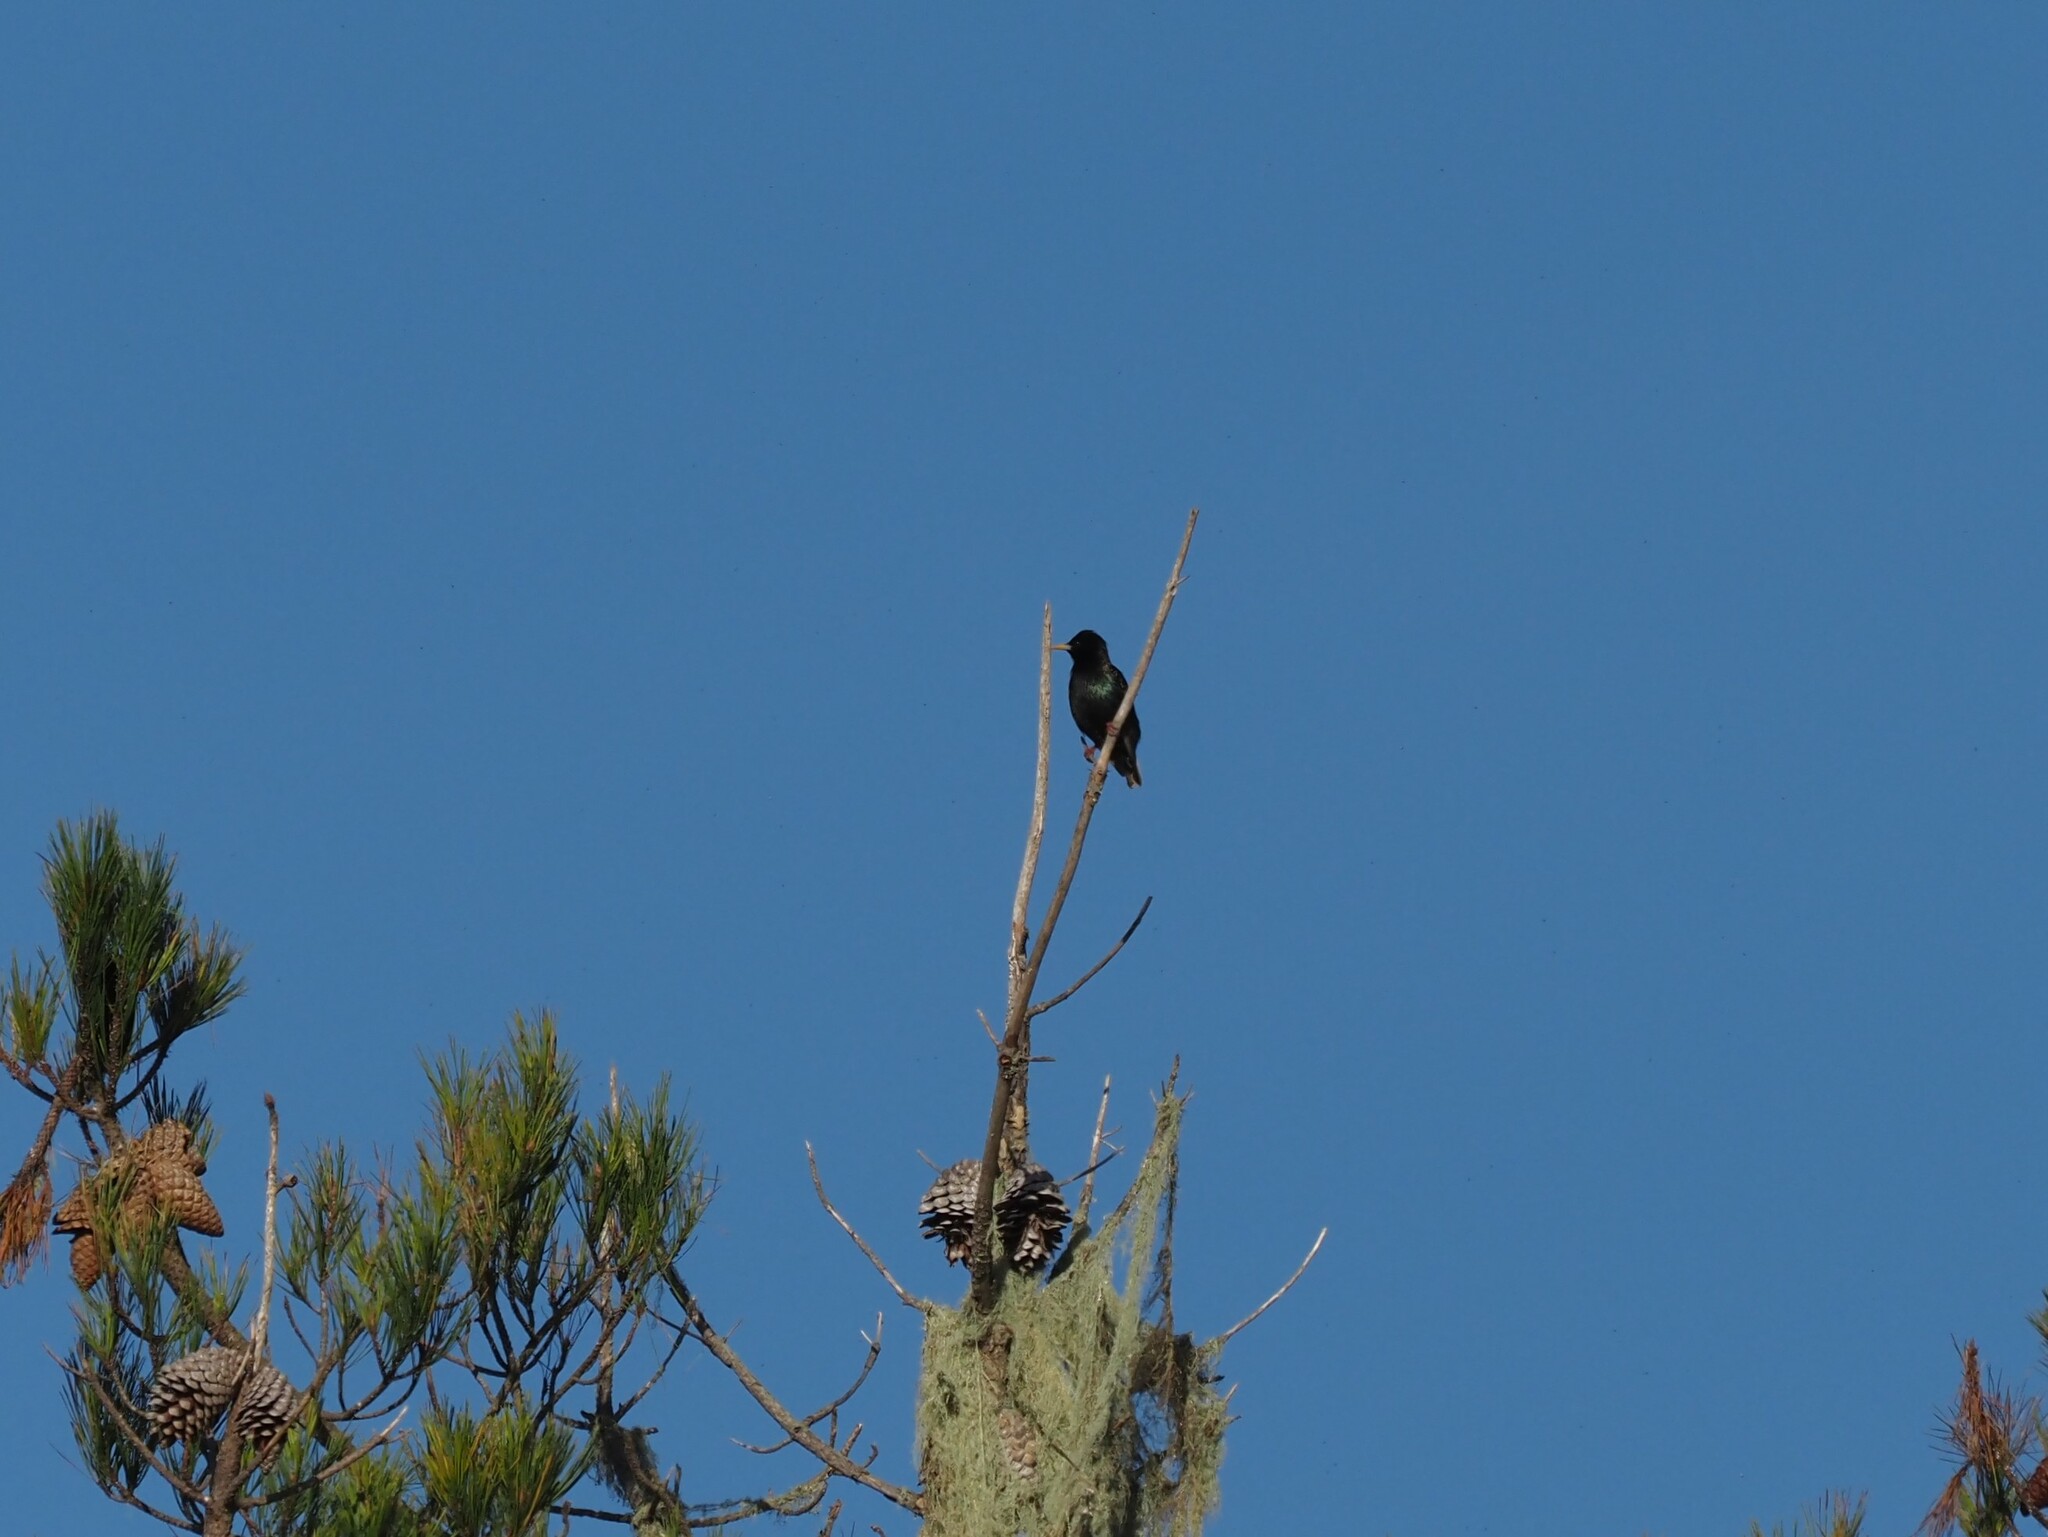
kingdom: Animalia
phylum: Chordata
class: Aves
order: Passeriformes
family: Sturnidae
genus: Sturnus
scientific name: Sturnus vulgaris
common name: Common starling
